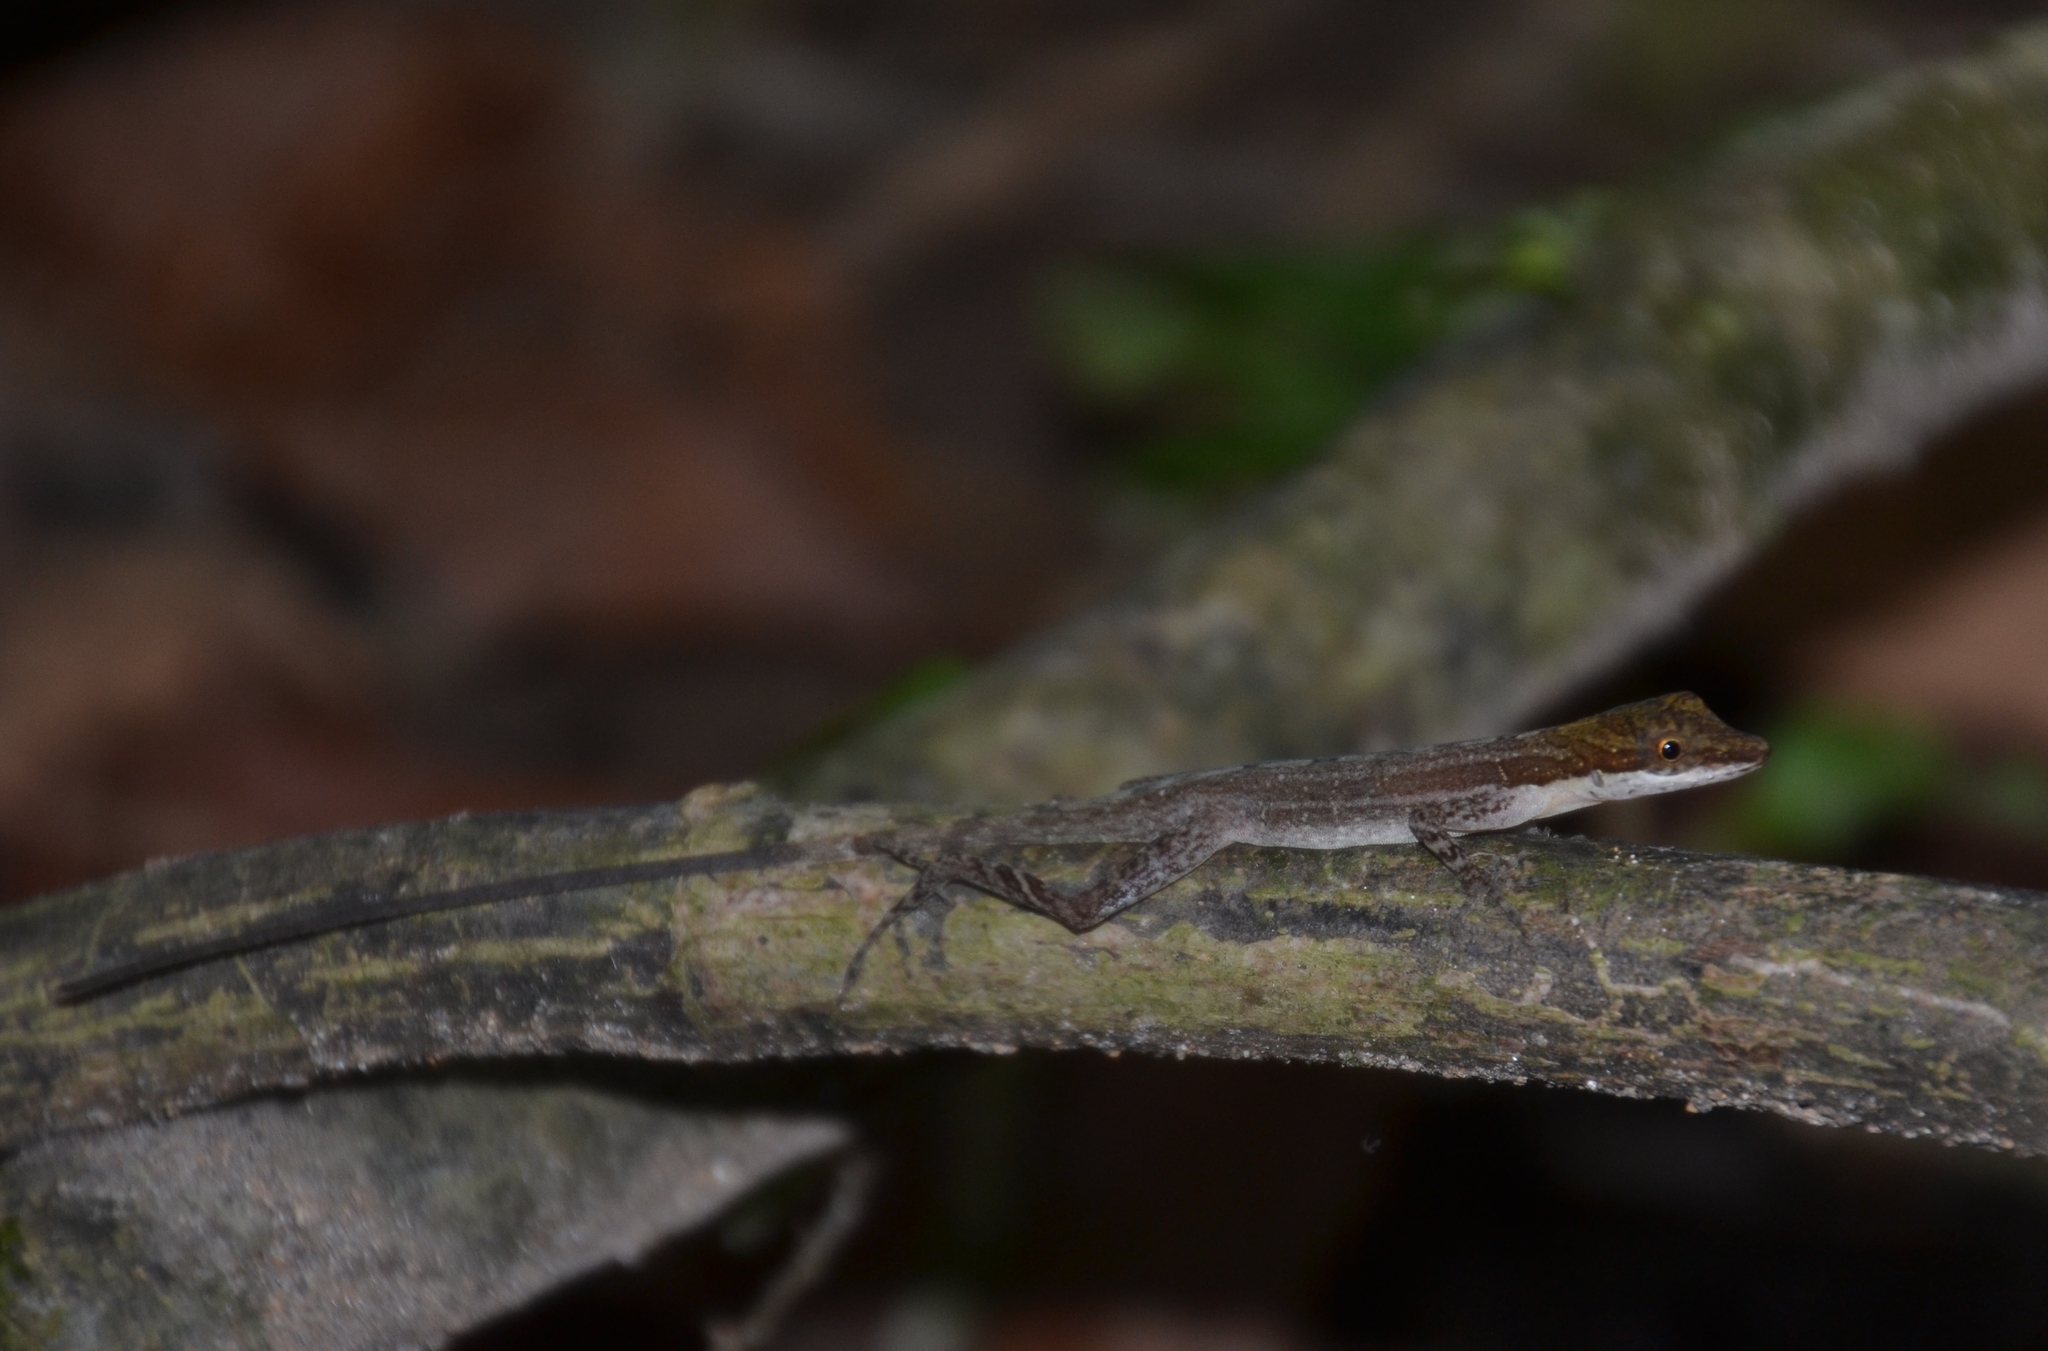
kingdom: Animalia
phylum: Chordata
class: Squamata
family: Dactyloidae
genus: Anolis
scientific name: Anolis limifrons
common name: Border anole
